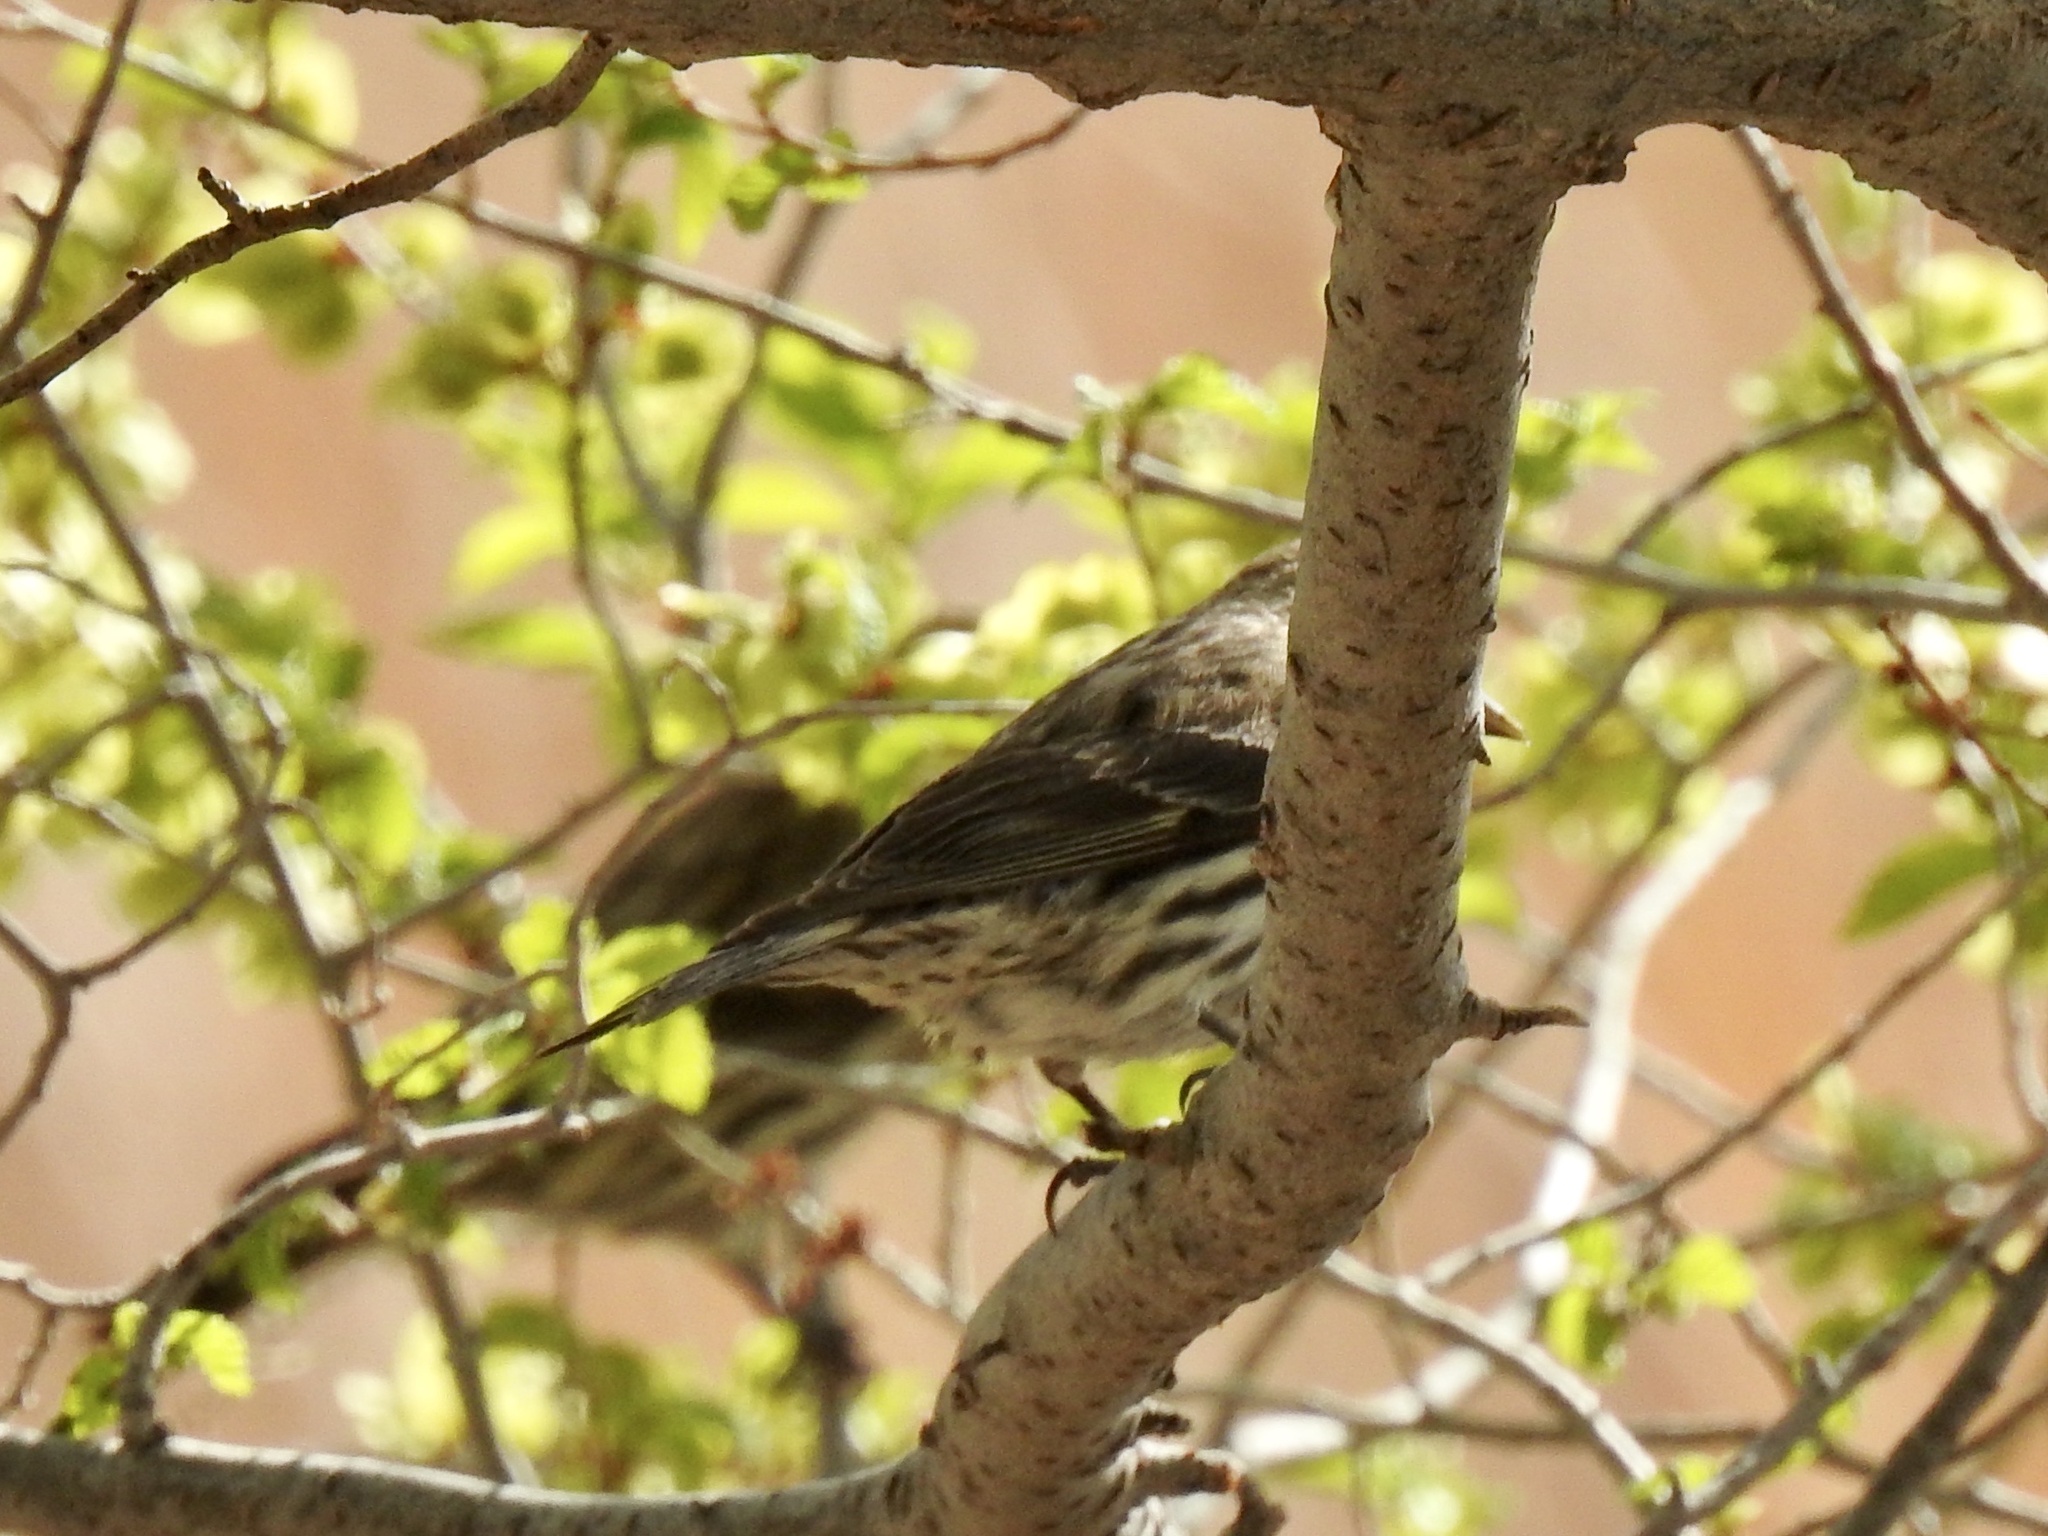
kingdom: Animalia
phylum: Chordata
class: Aves
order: Passeriformes
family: Fringillidae
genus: Haemorhous
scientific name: Haemorhous cassinii
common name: Cassin's finch
